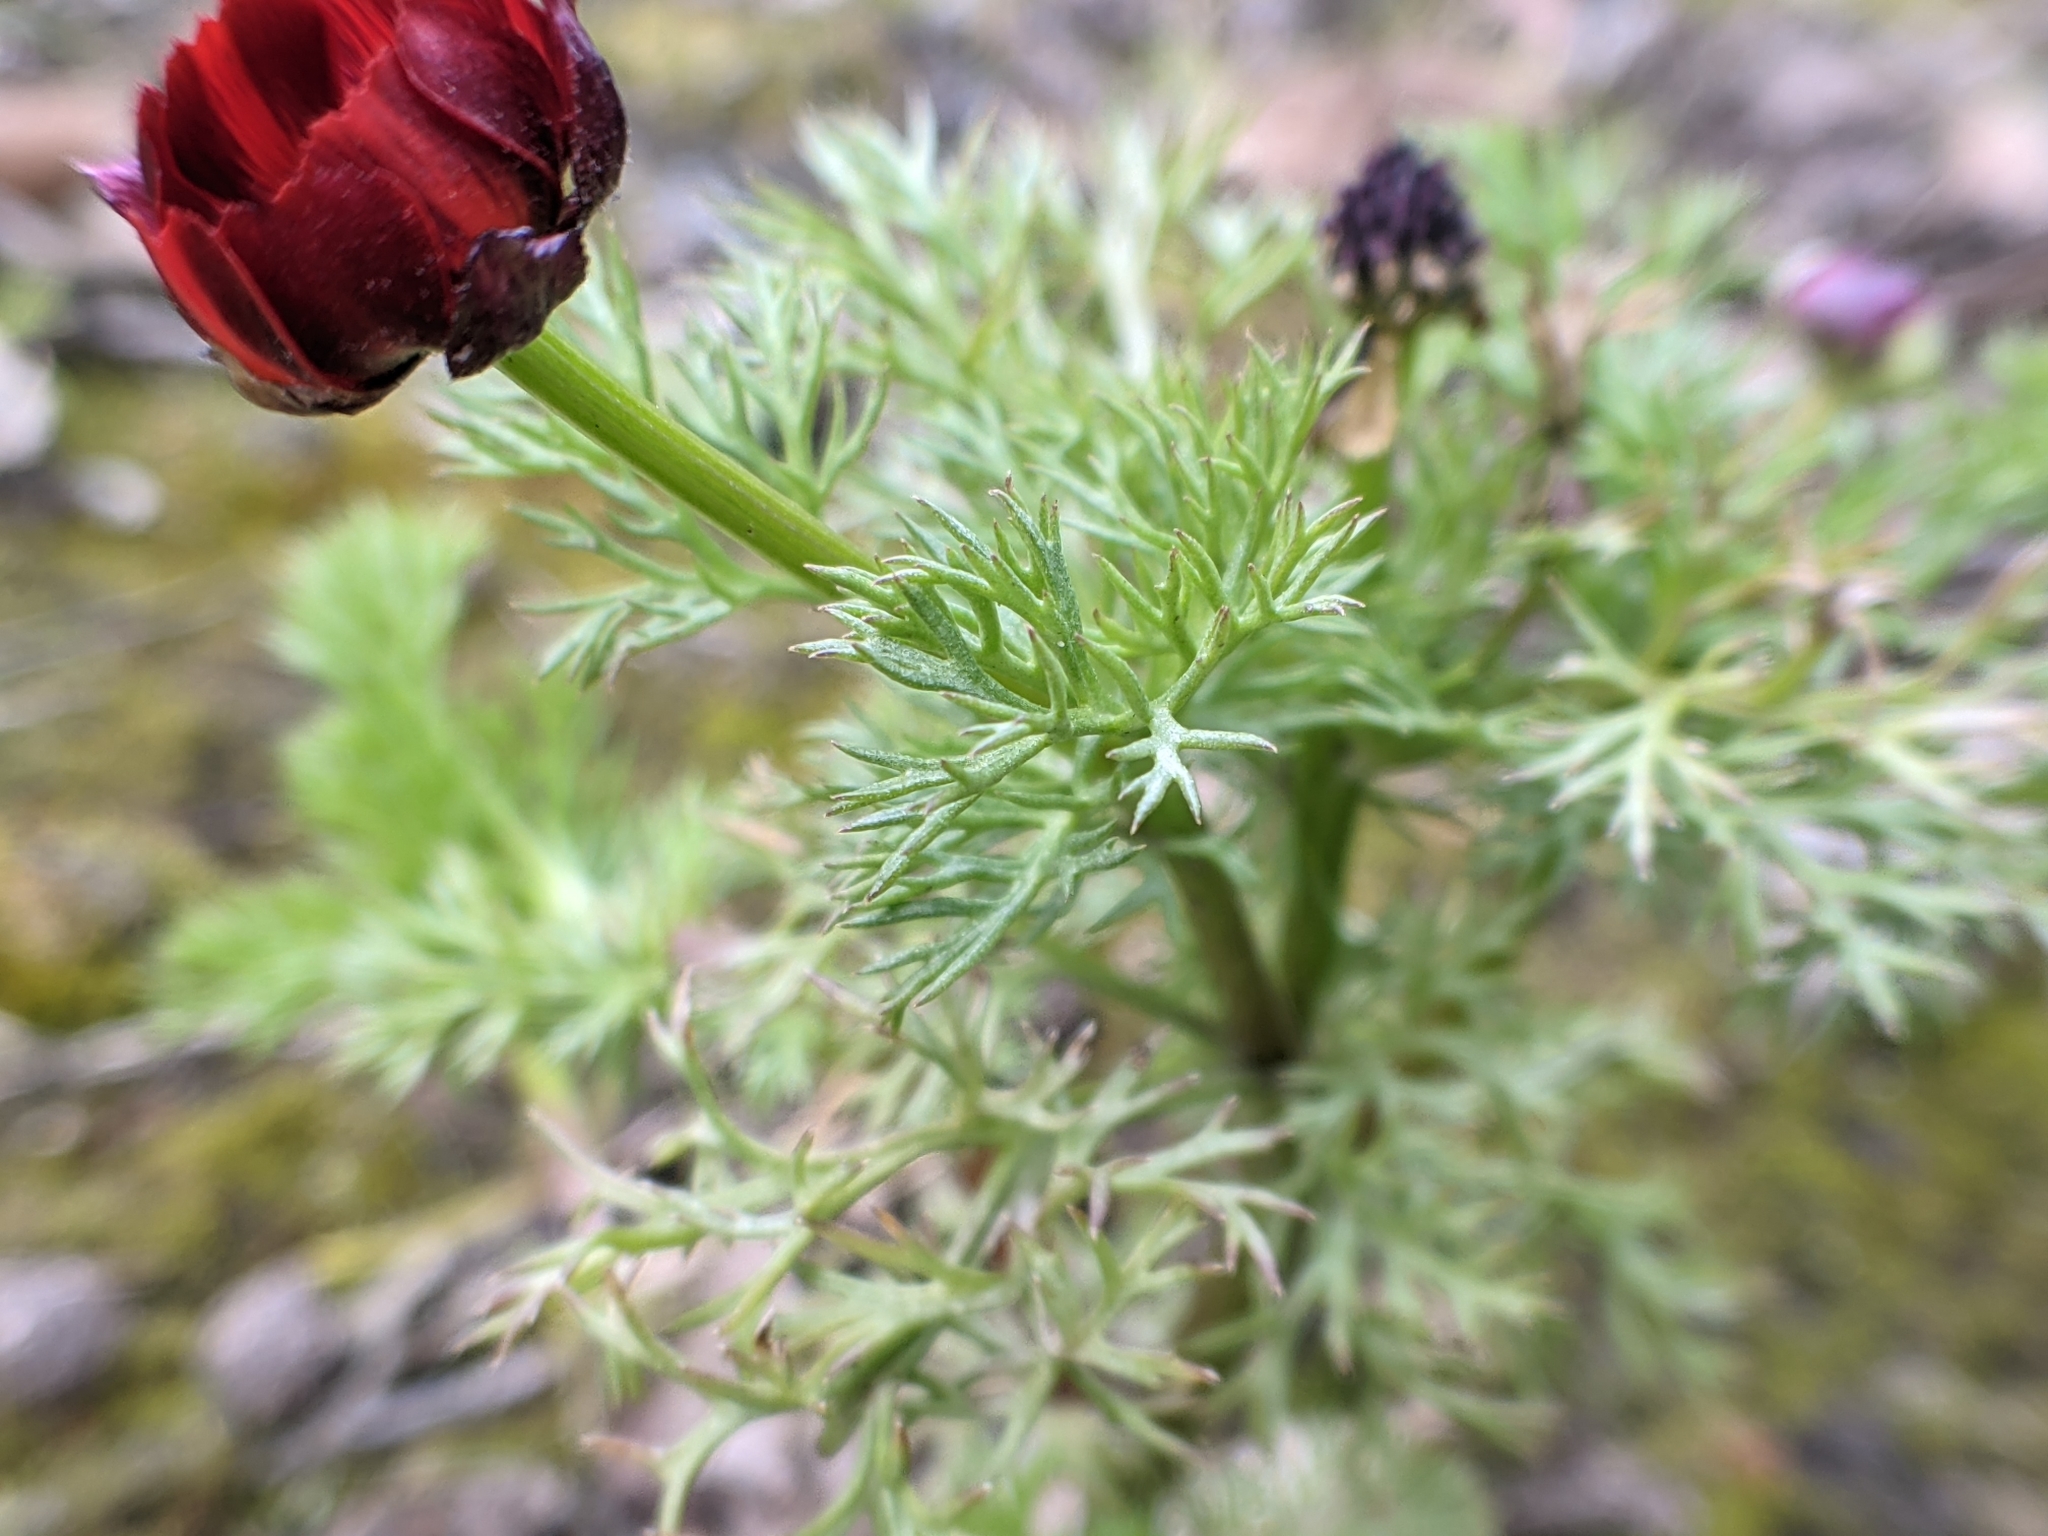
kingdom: Plantae
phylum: Tracheophyta
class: Magnoliopsida
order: Ranunculales
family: Ranunculaceae
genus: Adonis
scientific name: Adonis annua
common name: Pheasant's-eye
